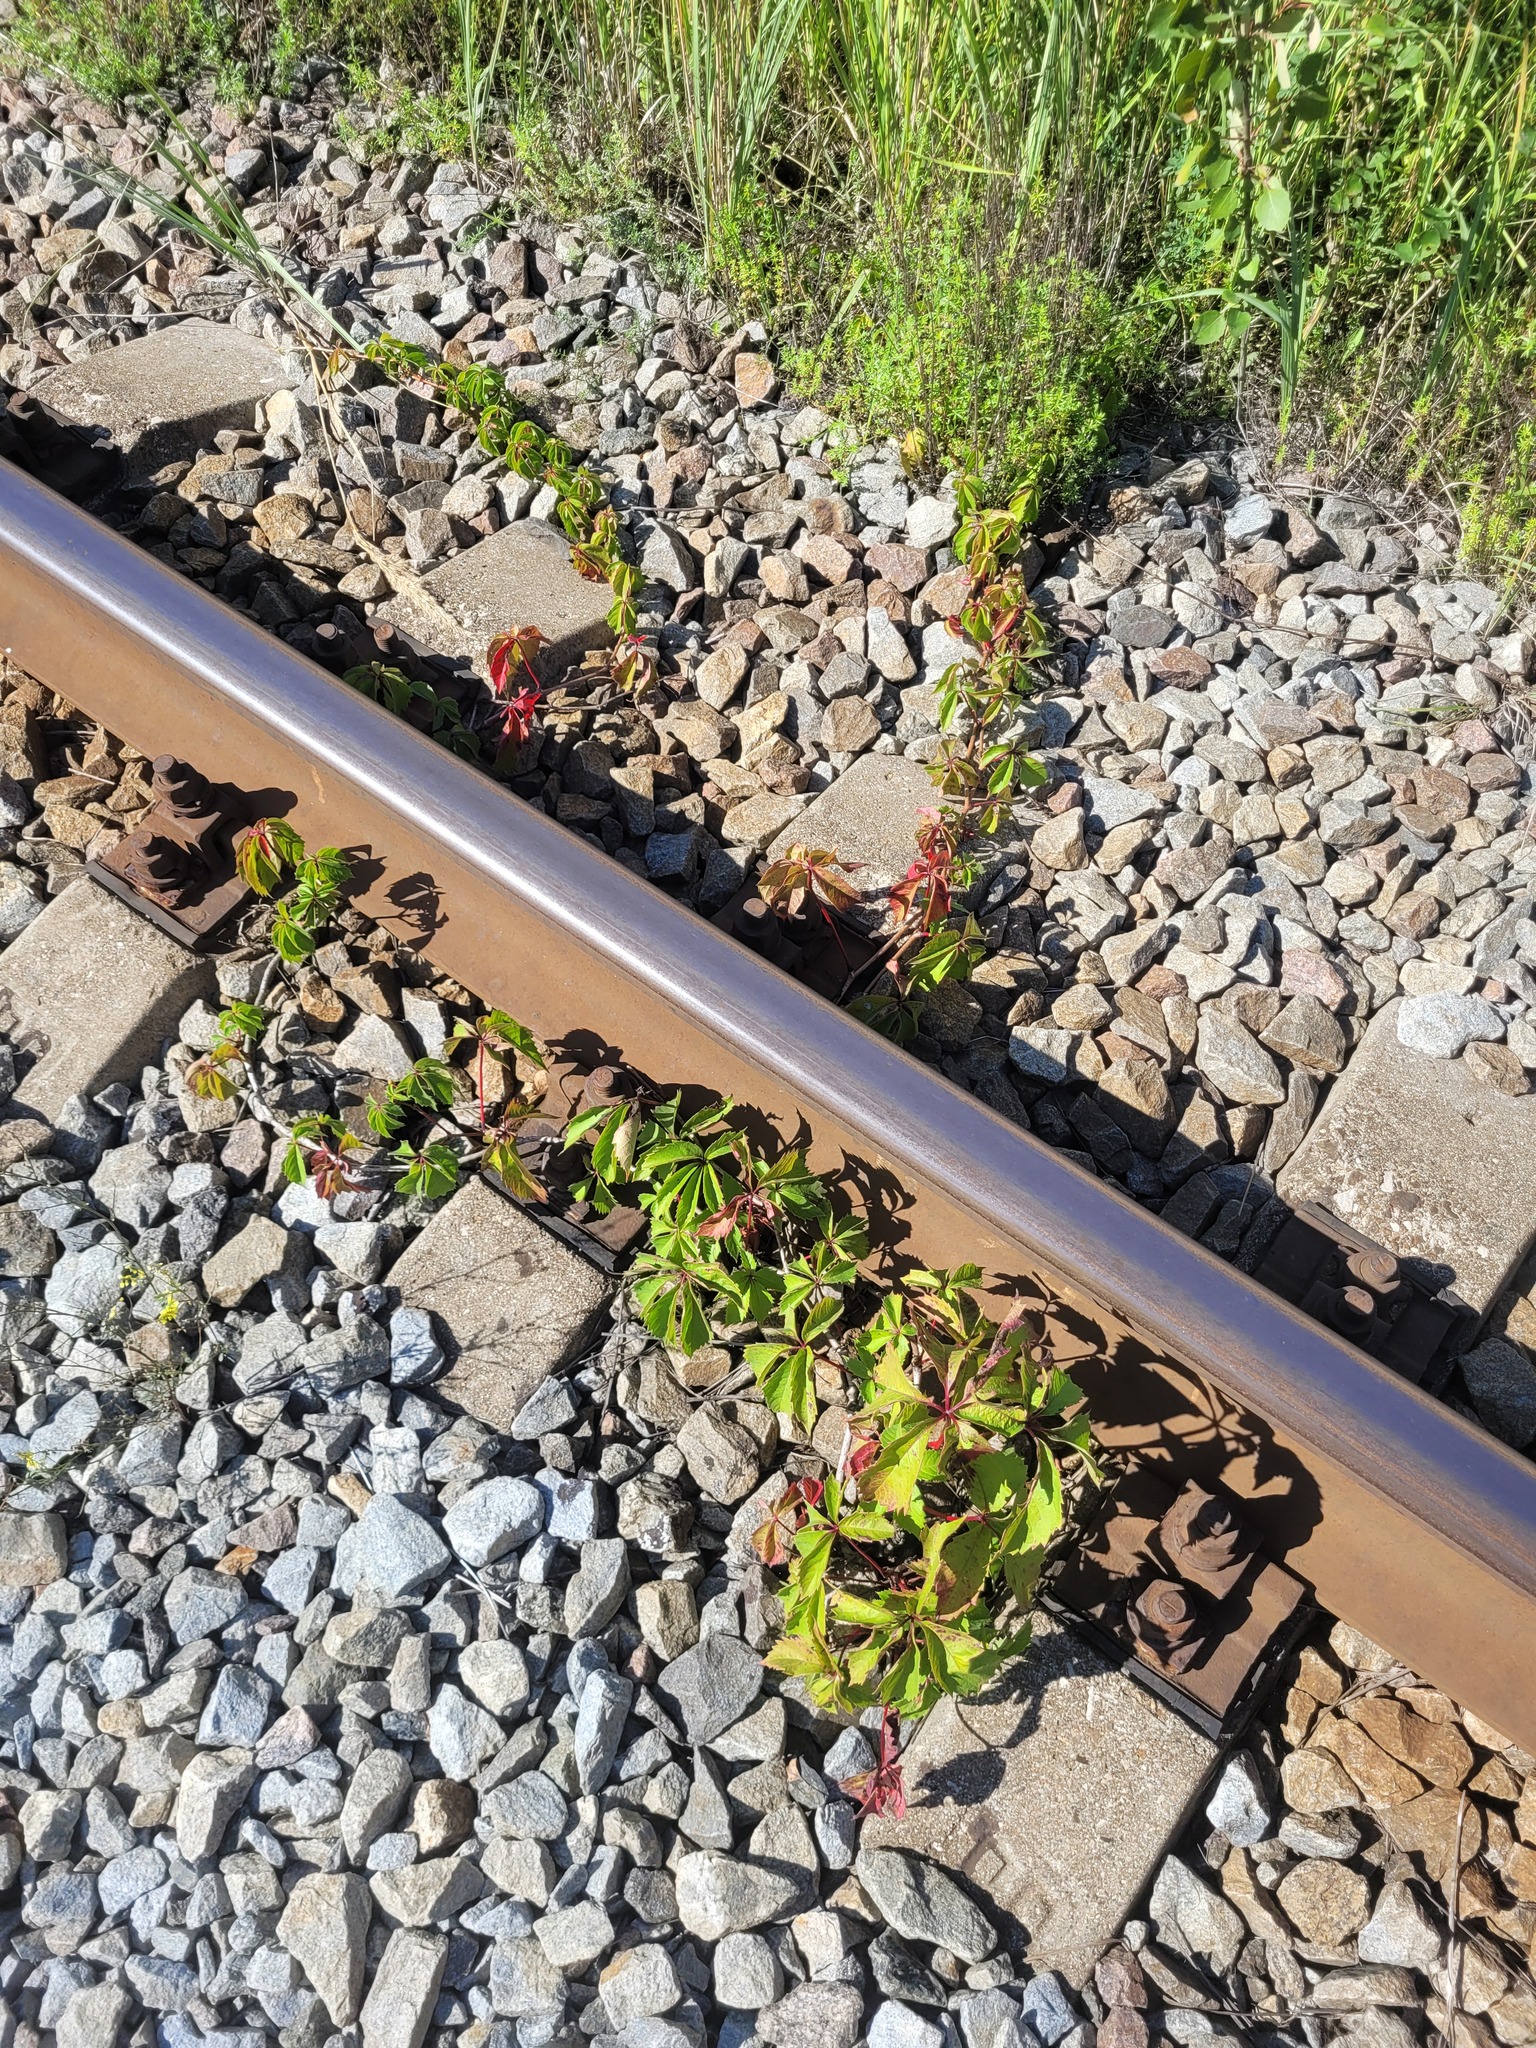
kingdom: Plantae
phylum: Tracheophyta
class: Magnoliopsida
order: Vitales
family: Vitaceae
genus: Parthenocissus
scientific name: Parthenocissus inserta
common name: False virginia-creeper
